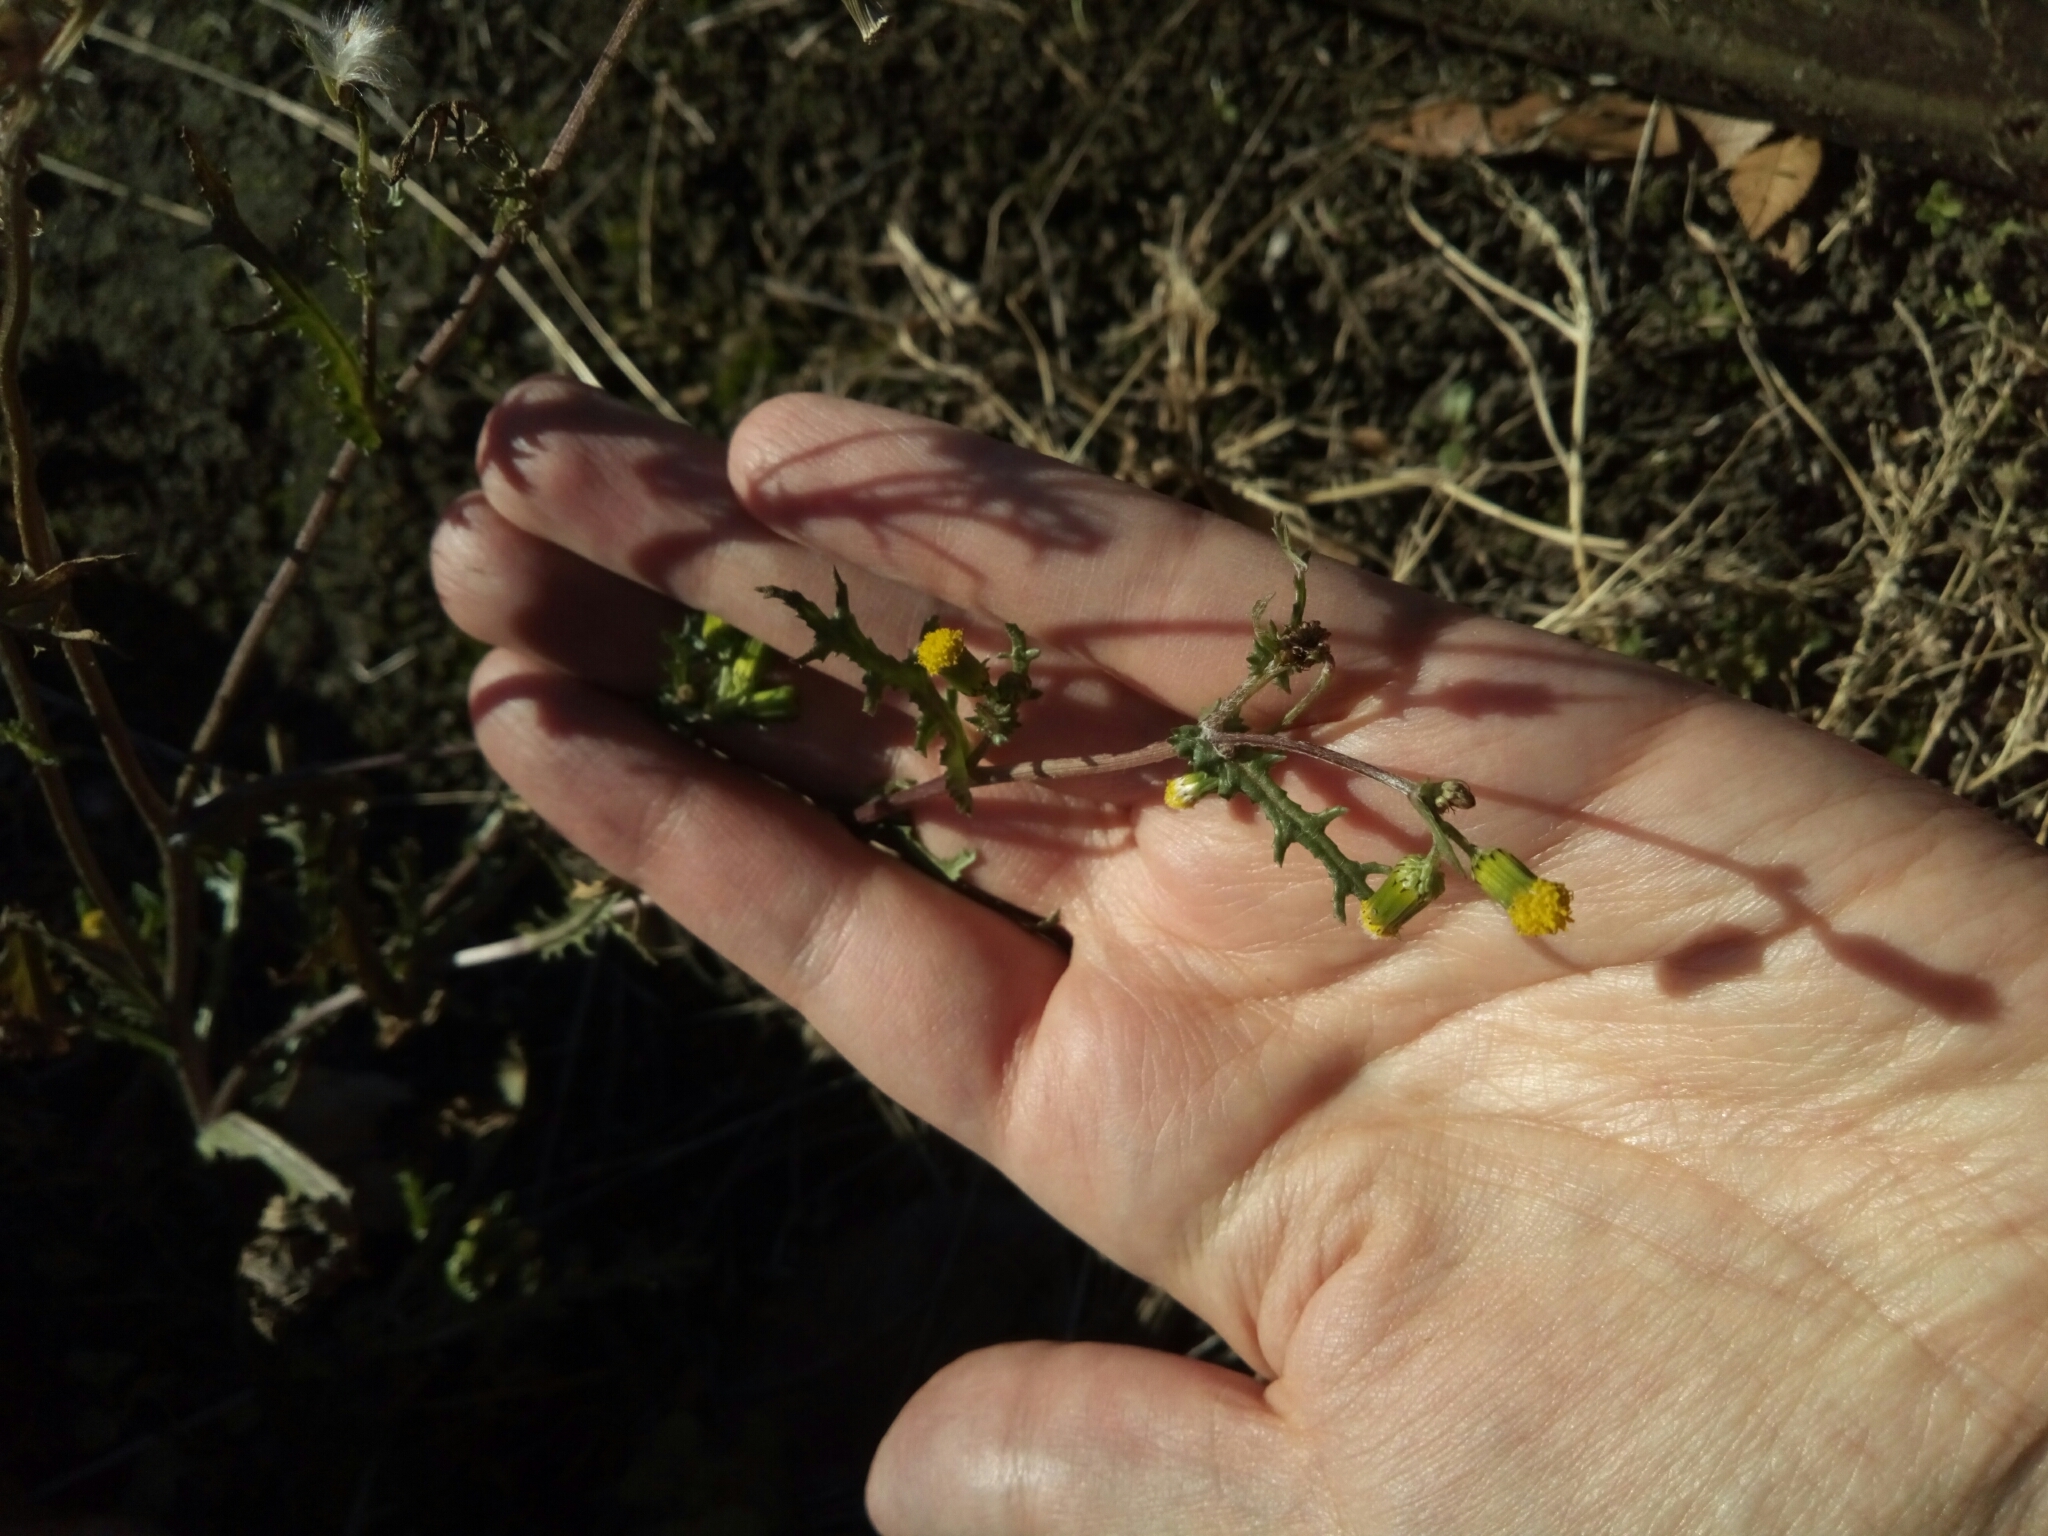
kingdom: Plantae
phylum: Tracheophyta
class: Magnoliopsida
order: Asterales
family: Asteraceae
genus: Senecio
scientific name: Senecio vulgaris
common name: Old-man-in-the-spring
